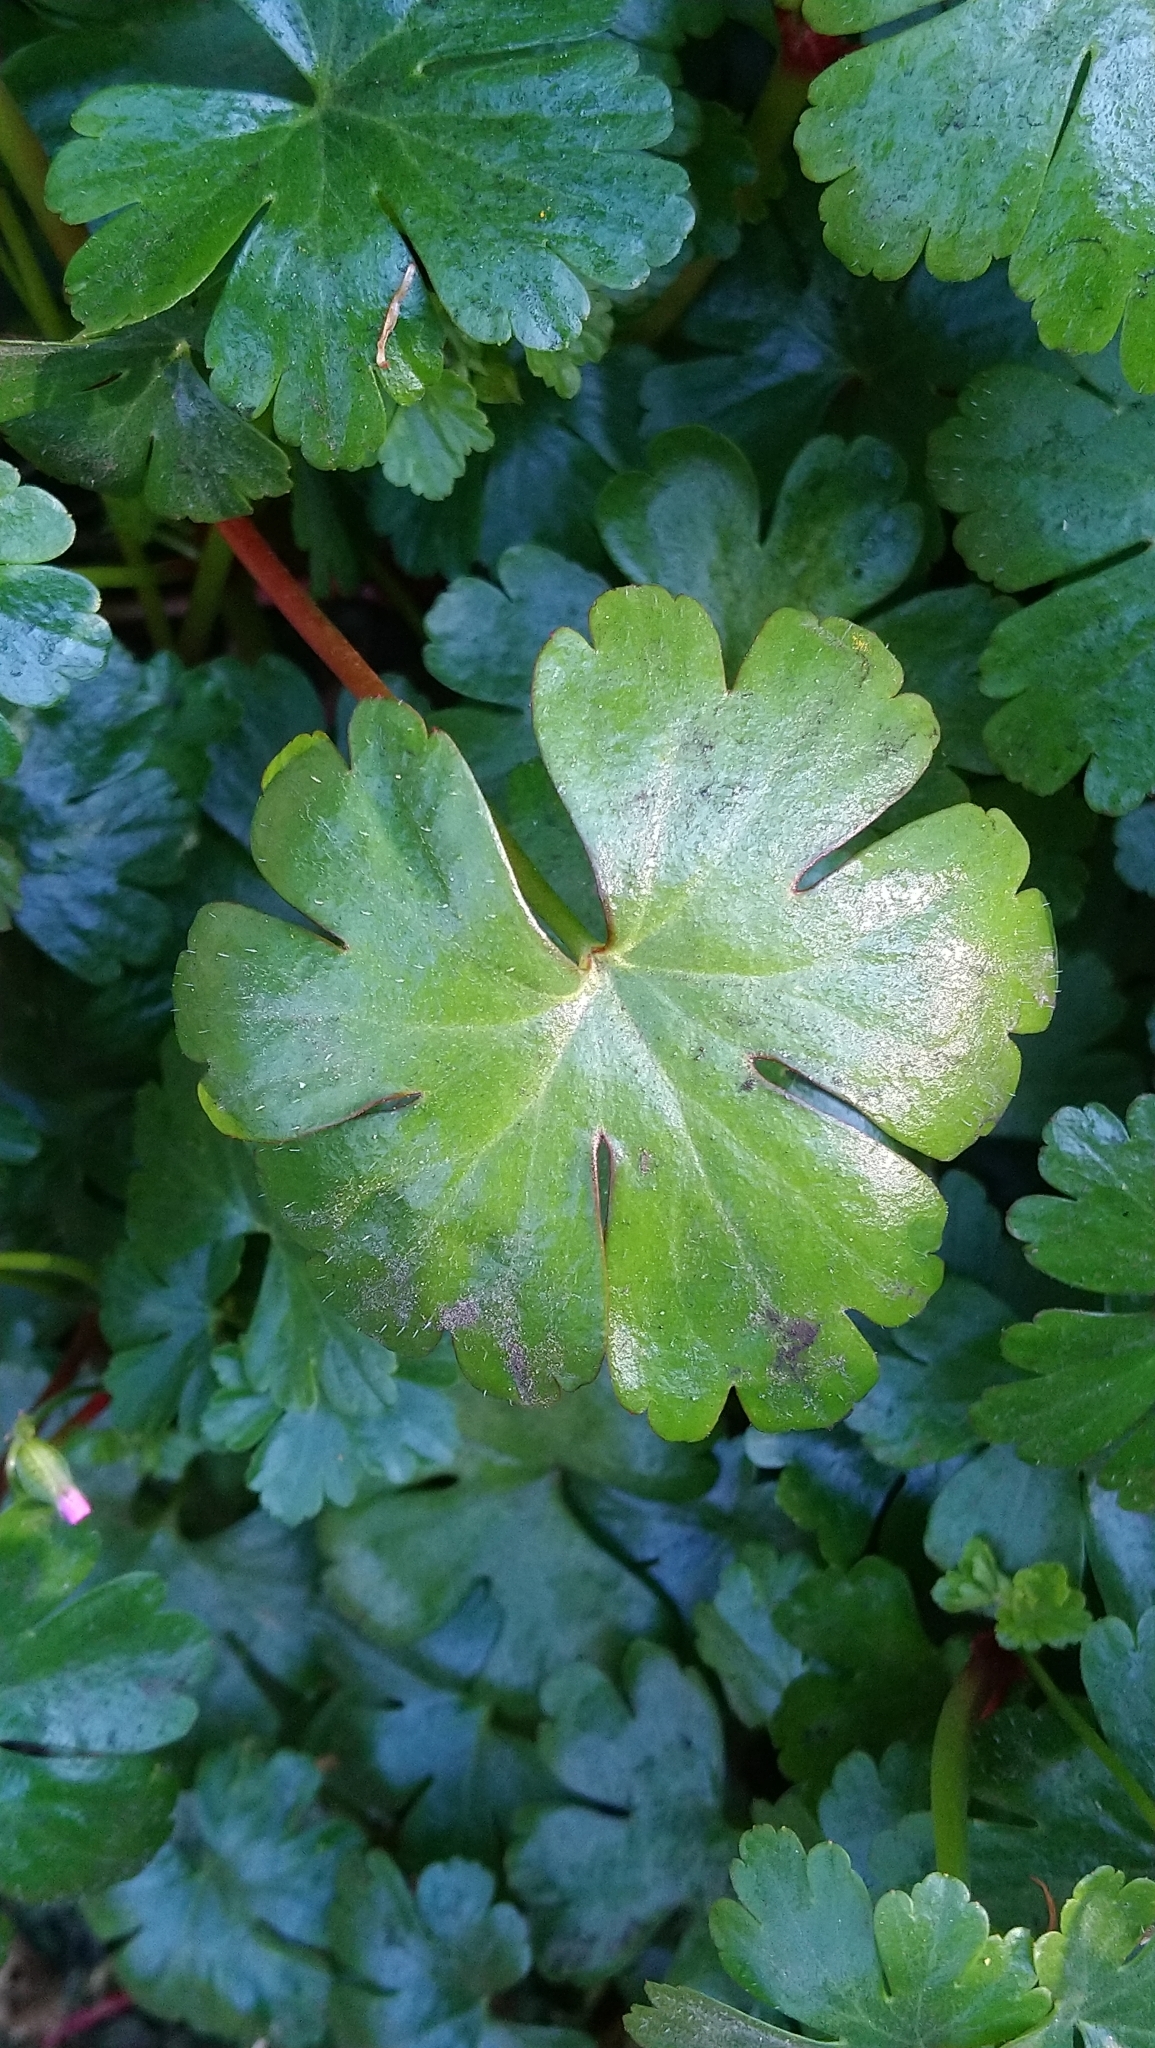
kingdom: Plantae
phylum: Tracheophyta
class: Magnoliopsida
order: Geraniales
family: Geraniaceae
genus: Geranium
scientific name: Geranium lucidum
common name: Shining crane's-bill
